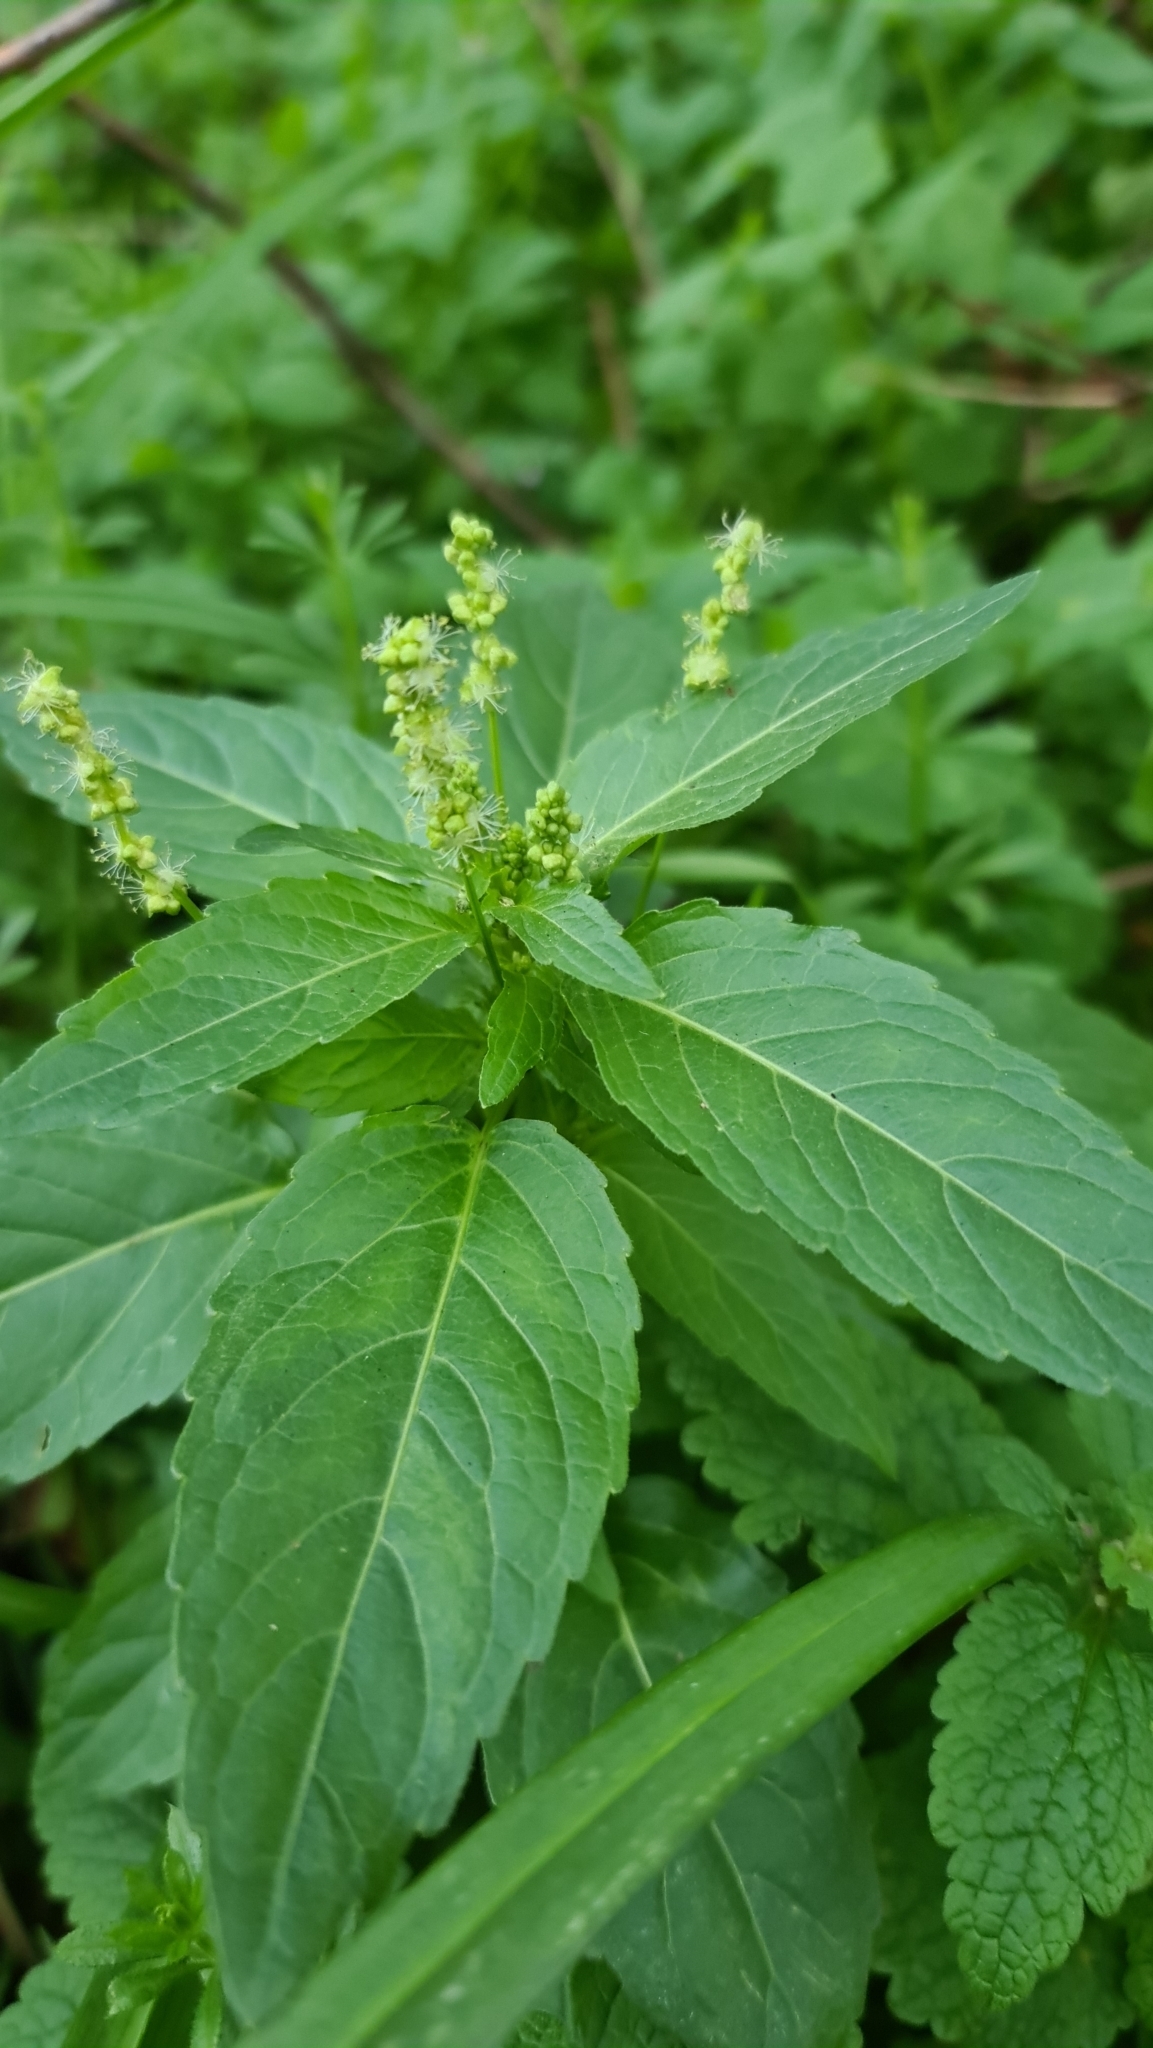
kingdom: Plantae
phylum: Tracheophyta
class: Magnoliopsida
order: Malpighiales
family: Euphorbiaceae
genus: Mercurialis
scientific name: Mercurialis annua
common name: Annual mercury
